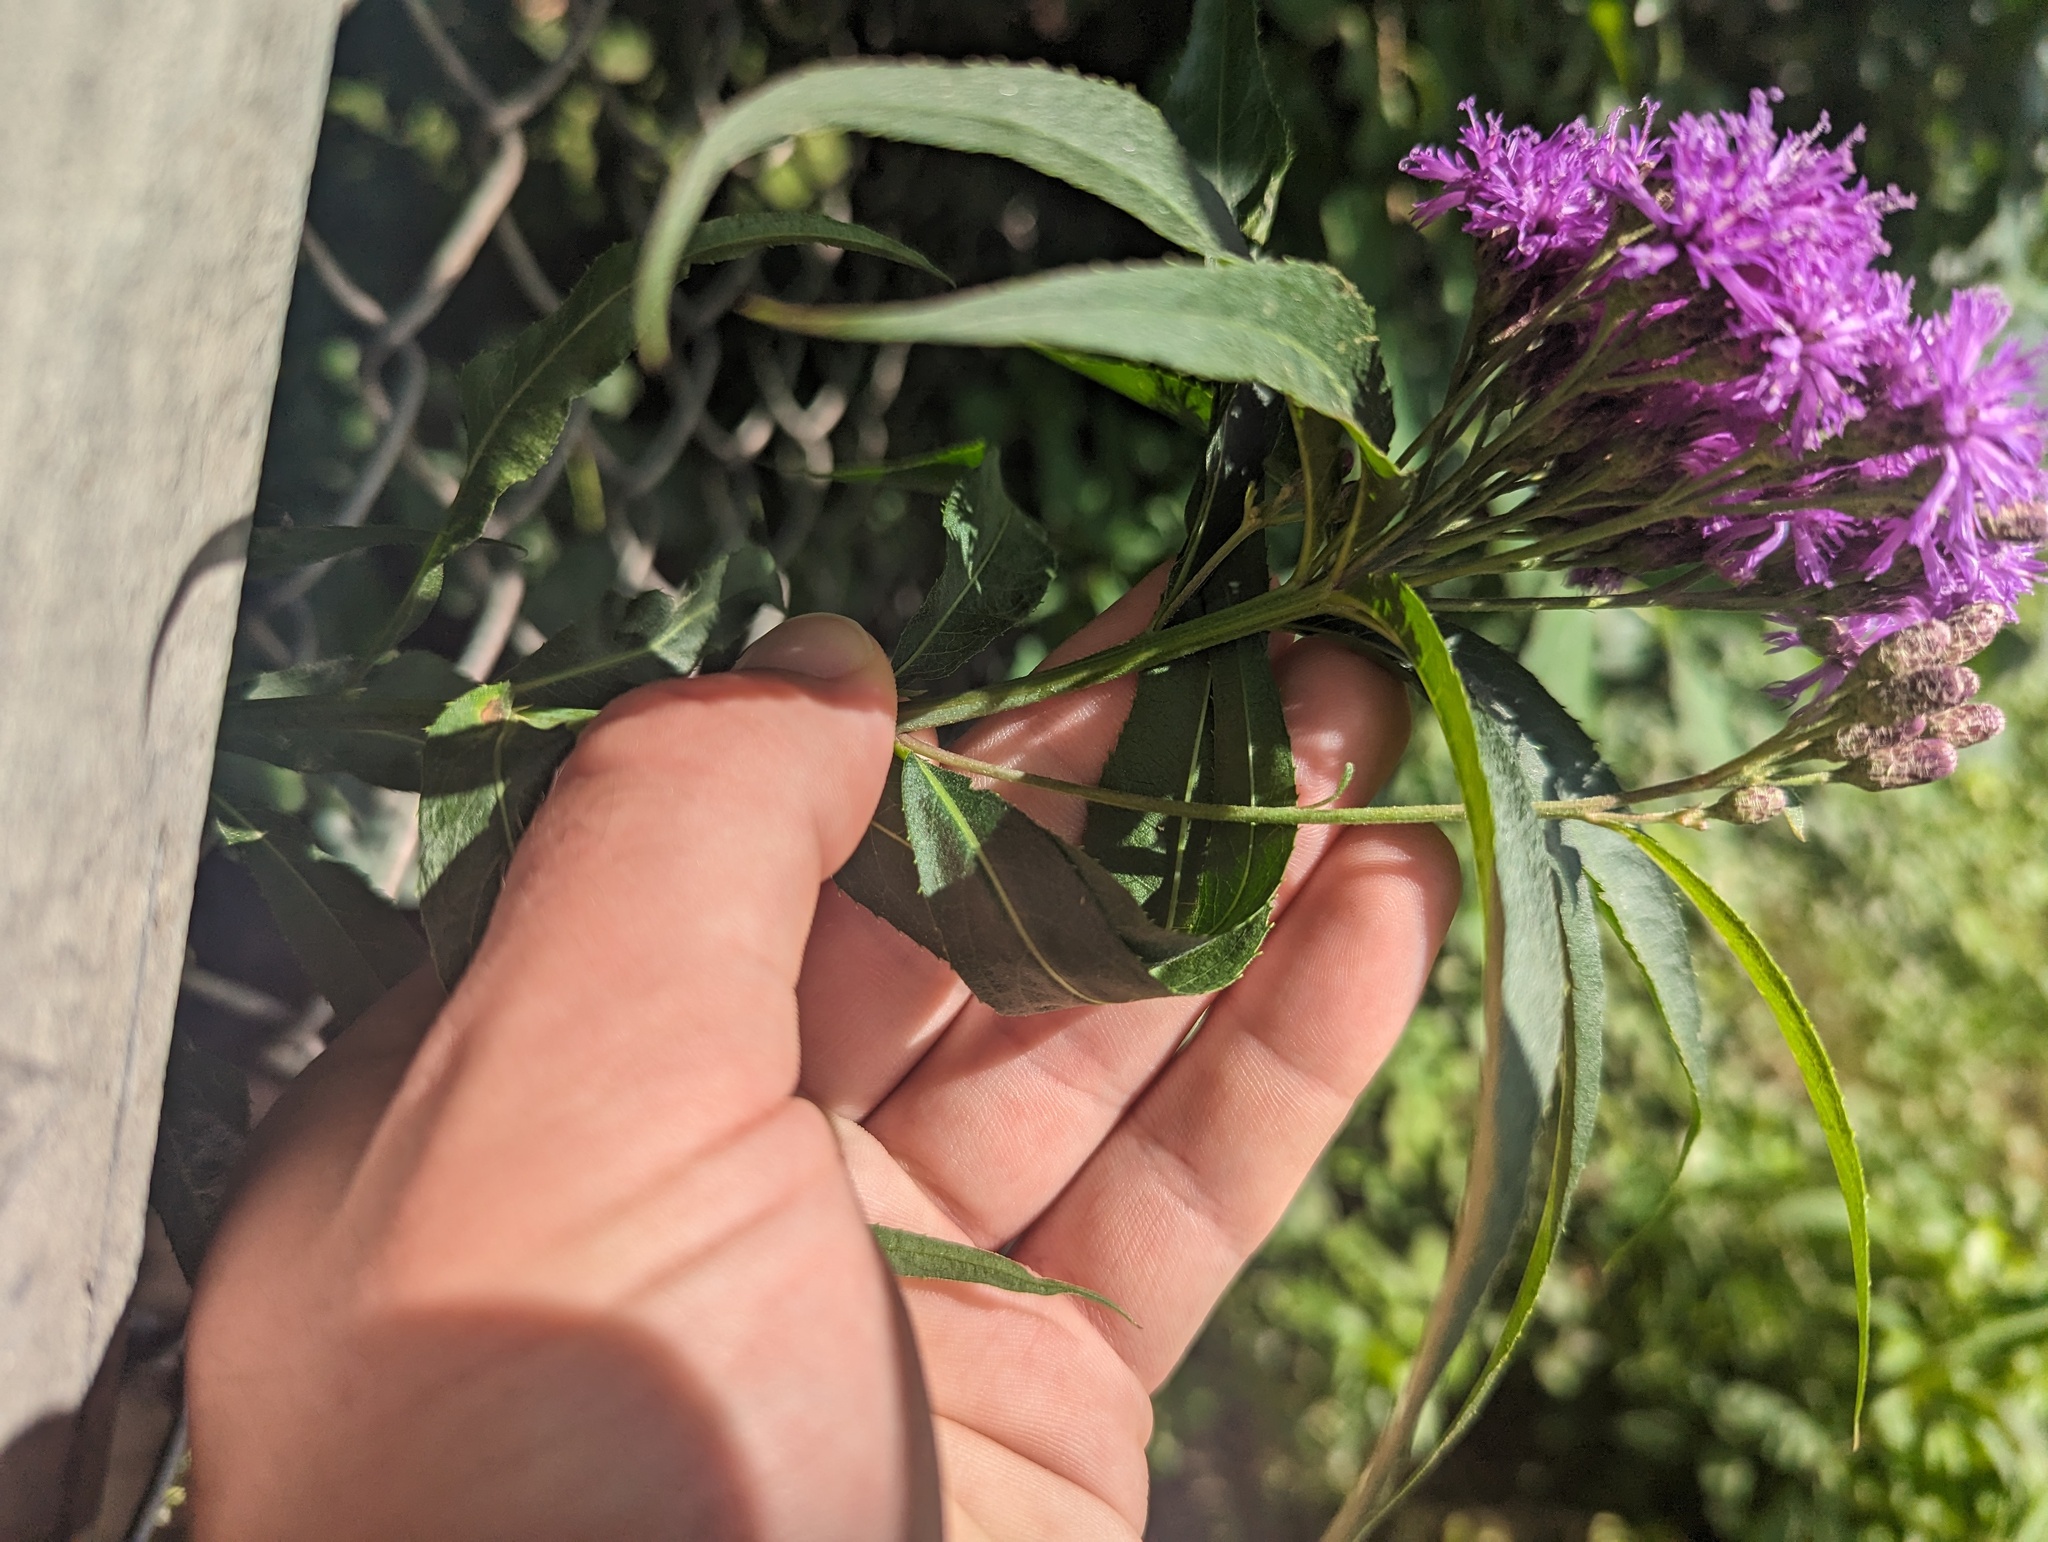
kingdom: Plantae
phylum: Tracheophyta
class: Magnoliopsida
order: Asterales
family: Asteraceae
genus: Vernonia
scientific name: Vernonia fasciculata
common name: Fascicled ironweed
